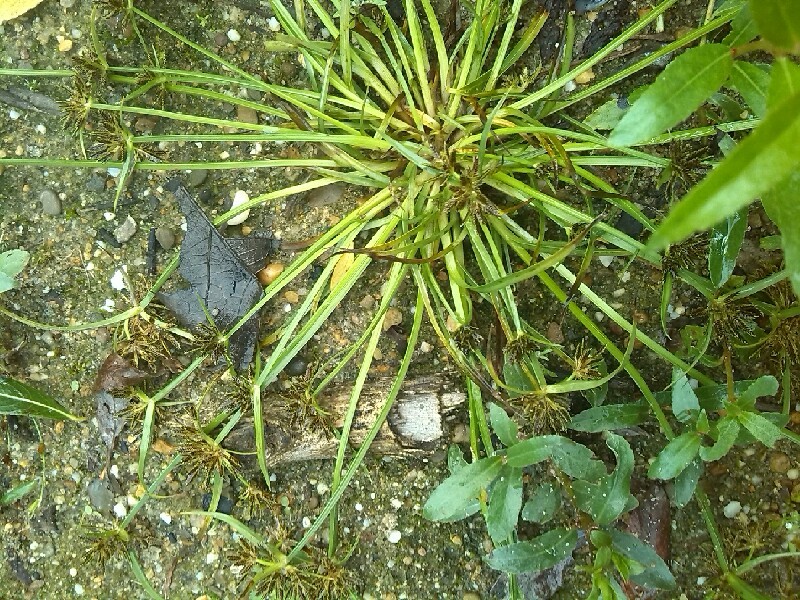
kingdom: Plantae
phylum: Tracheophyta
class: Liliopsida
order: Poales
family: Cyperaceae
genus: Cyperus
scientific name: Cyperus fuscus
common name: Brown galingale
